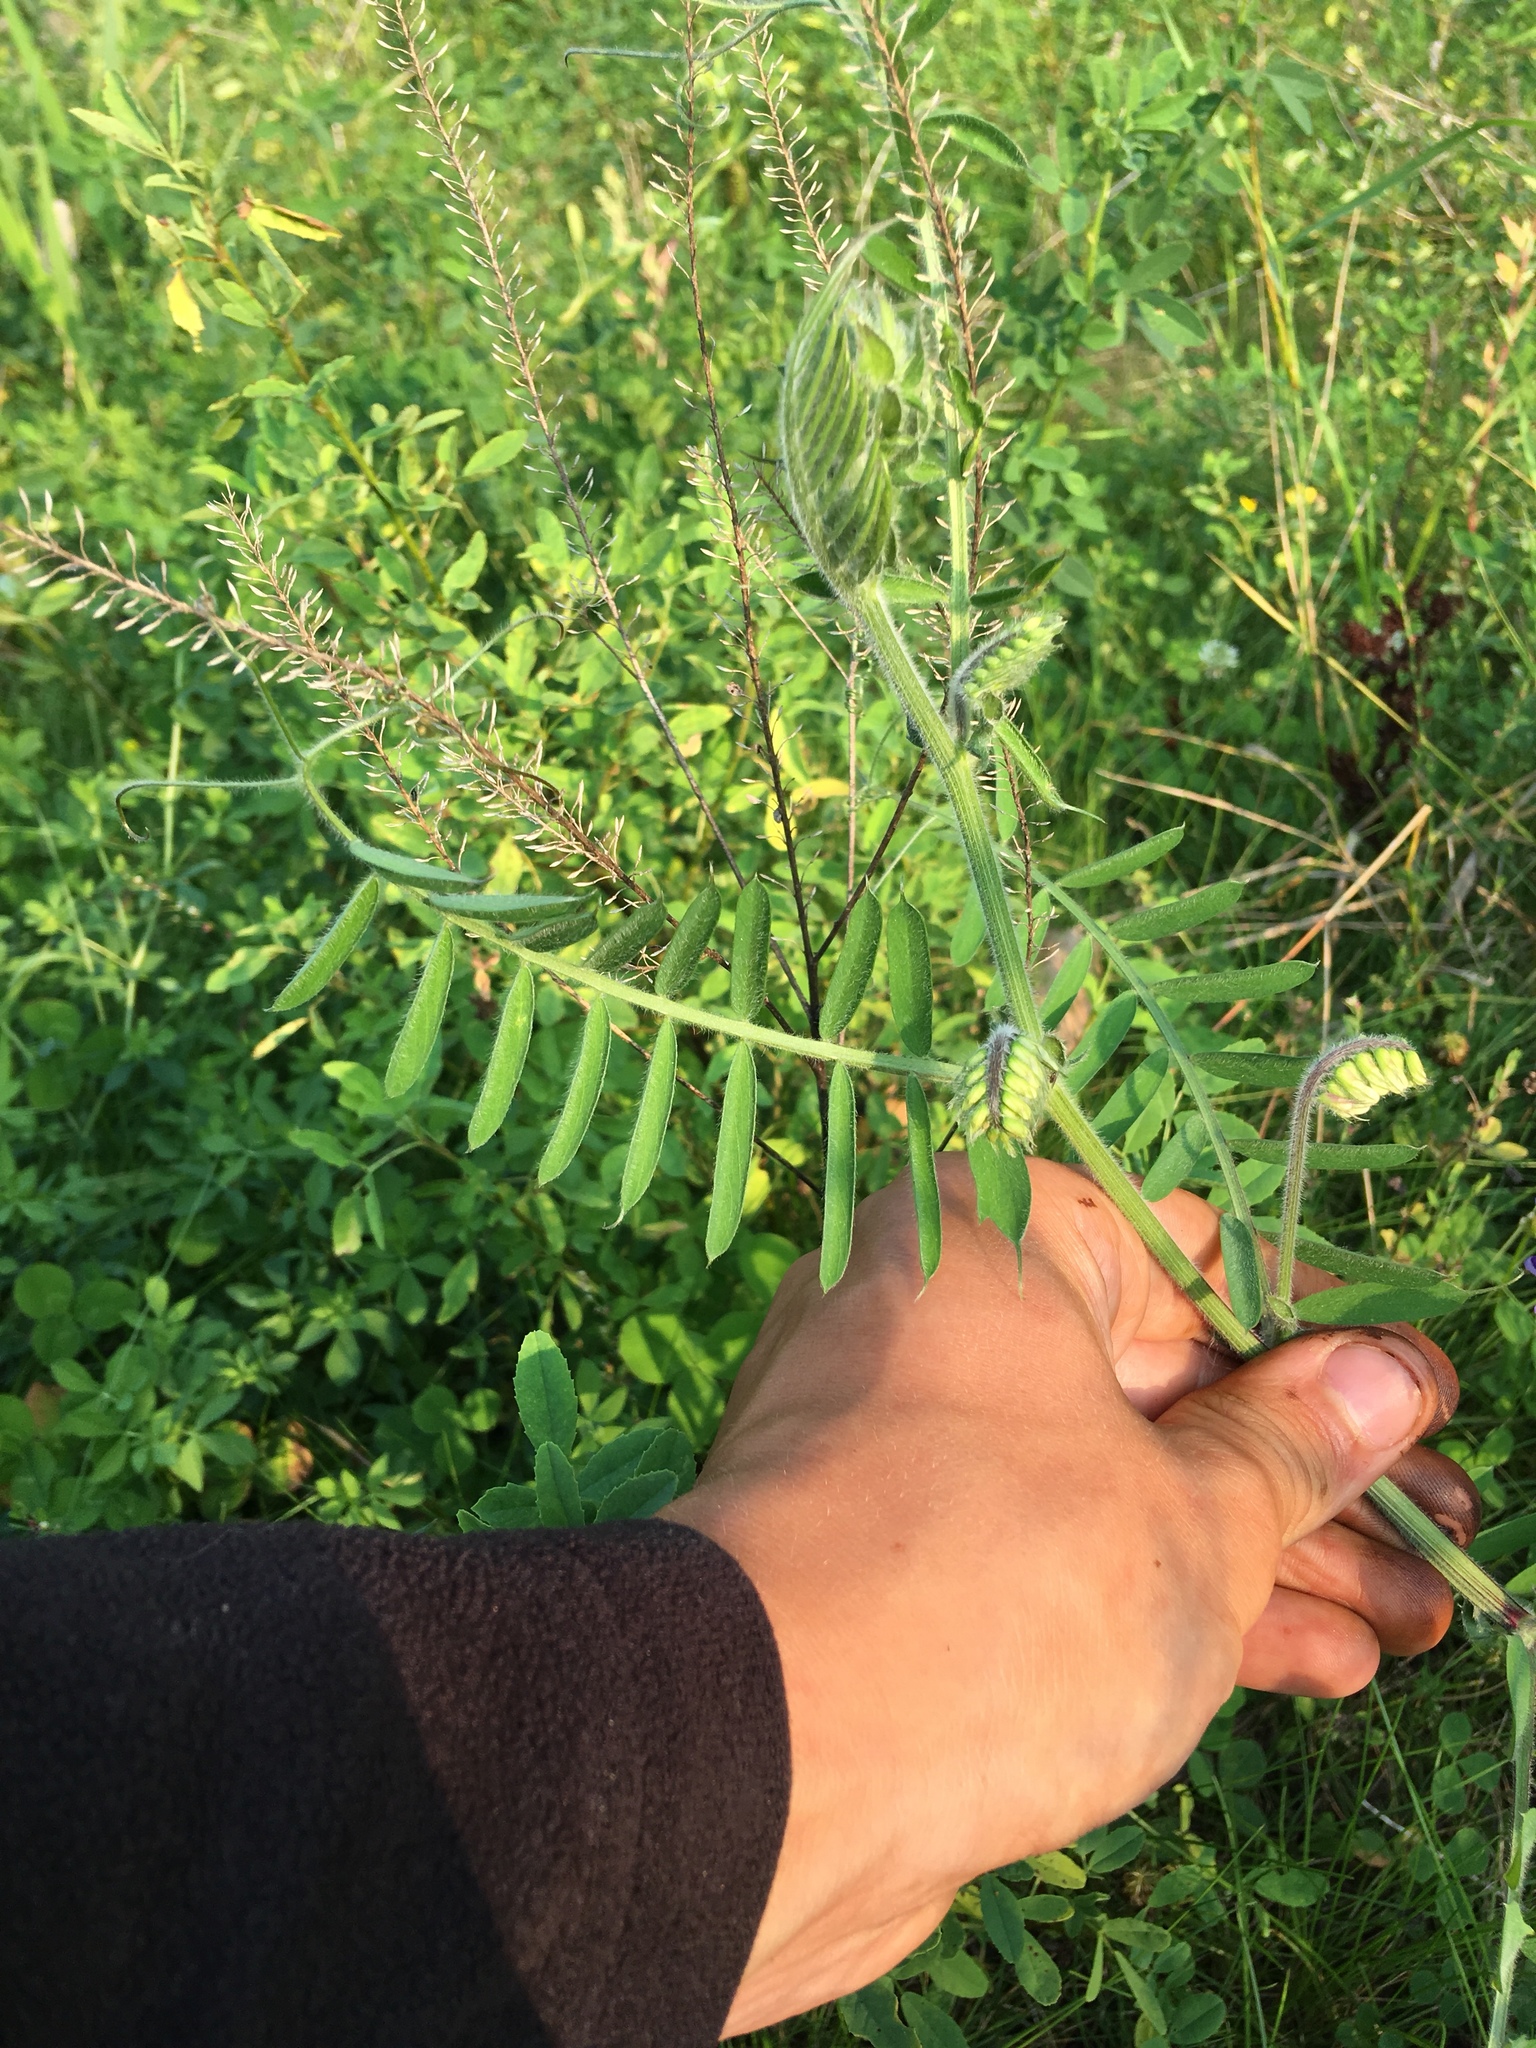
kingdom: Plantae
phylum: Tracheophyta
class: Magnoliopsida
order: Fabales
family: Fabaceae
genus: Vicia
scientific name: Vicia villosa
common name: Fodder vetch
